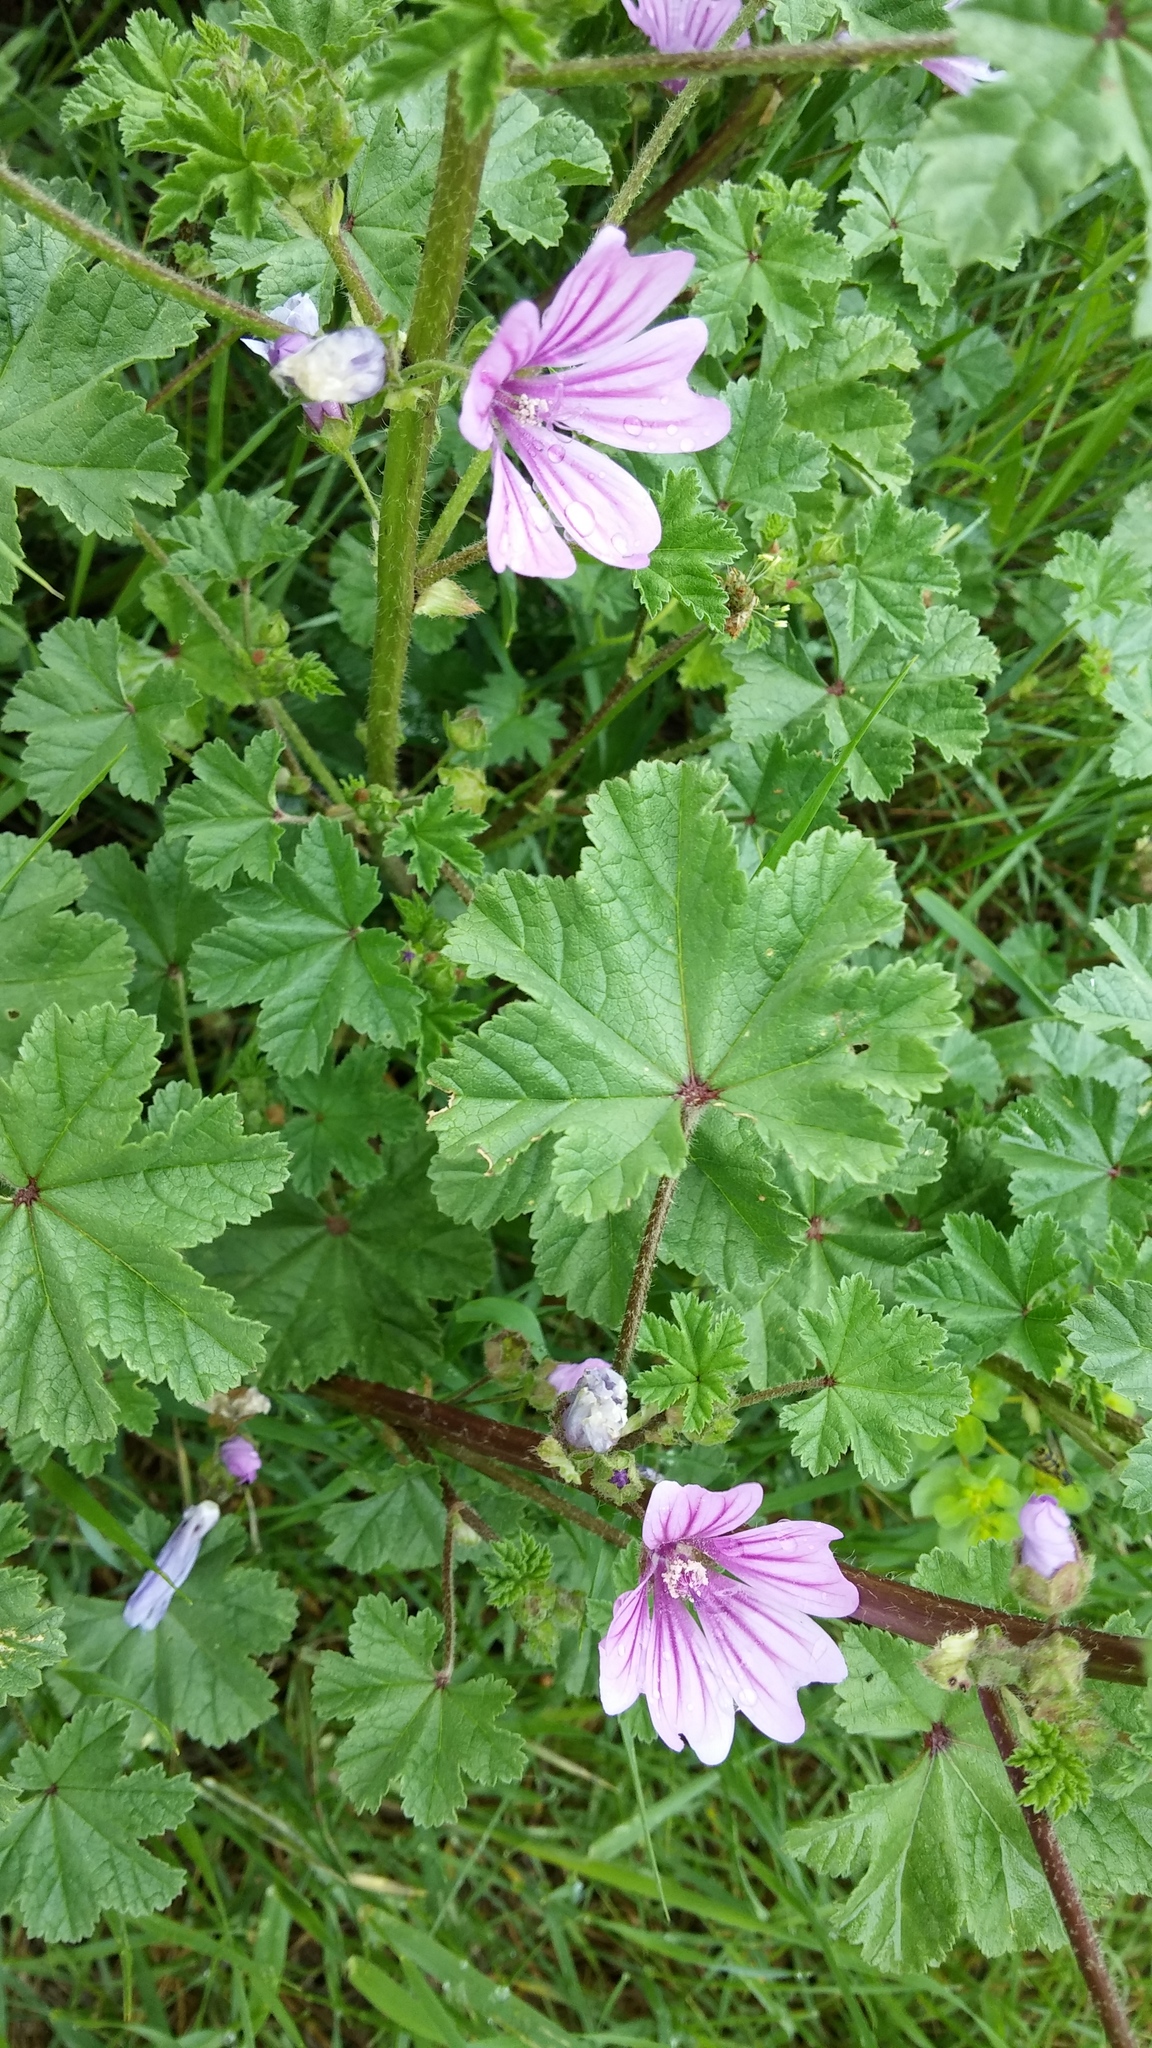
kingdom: Plantae
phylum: Tracheophyta
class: Magnoliopsida
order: Malvales
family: Malvaceae
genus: Malva
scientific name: Malva sylvestris
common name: Common mallow
